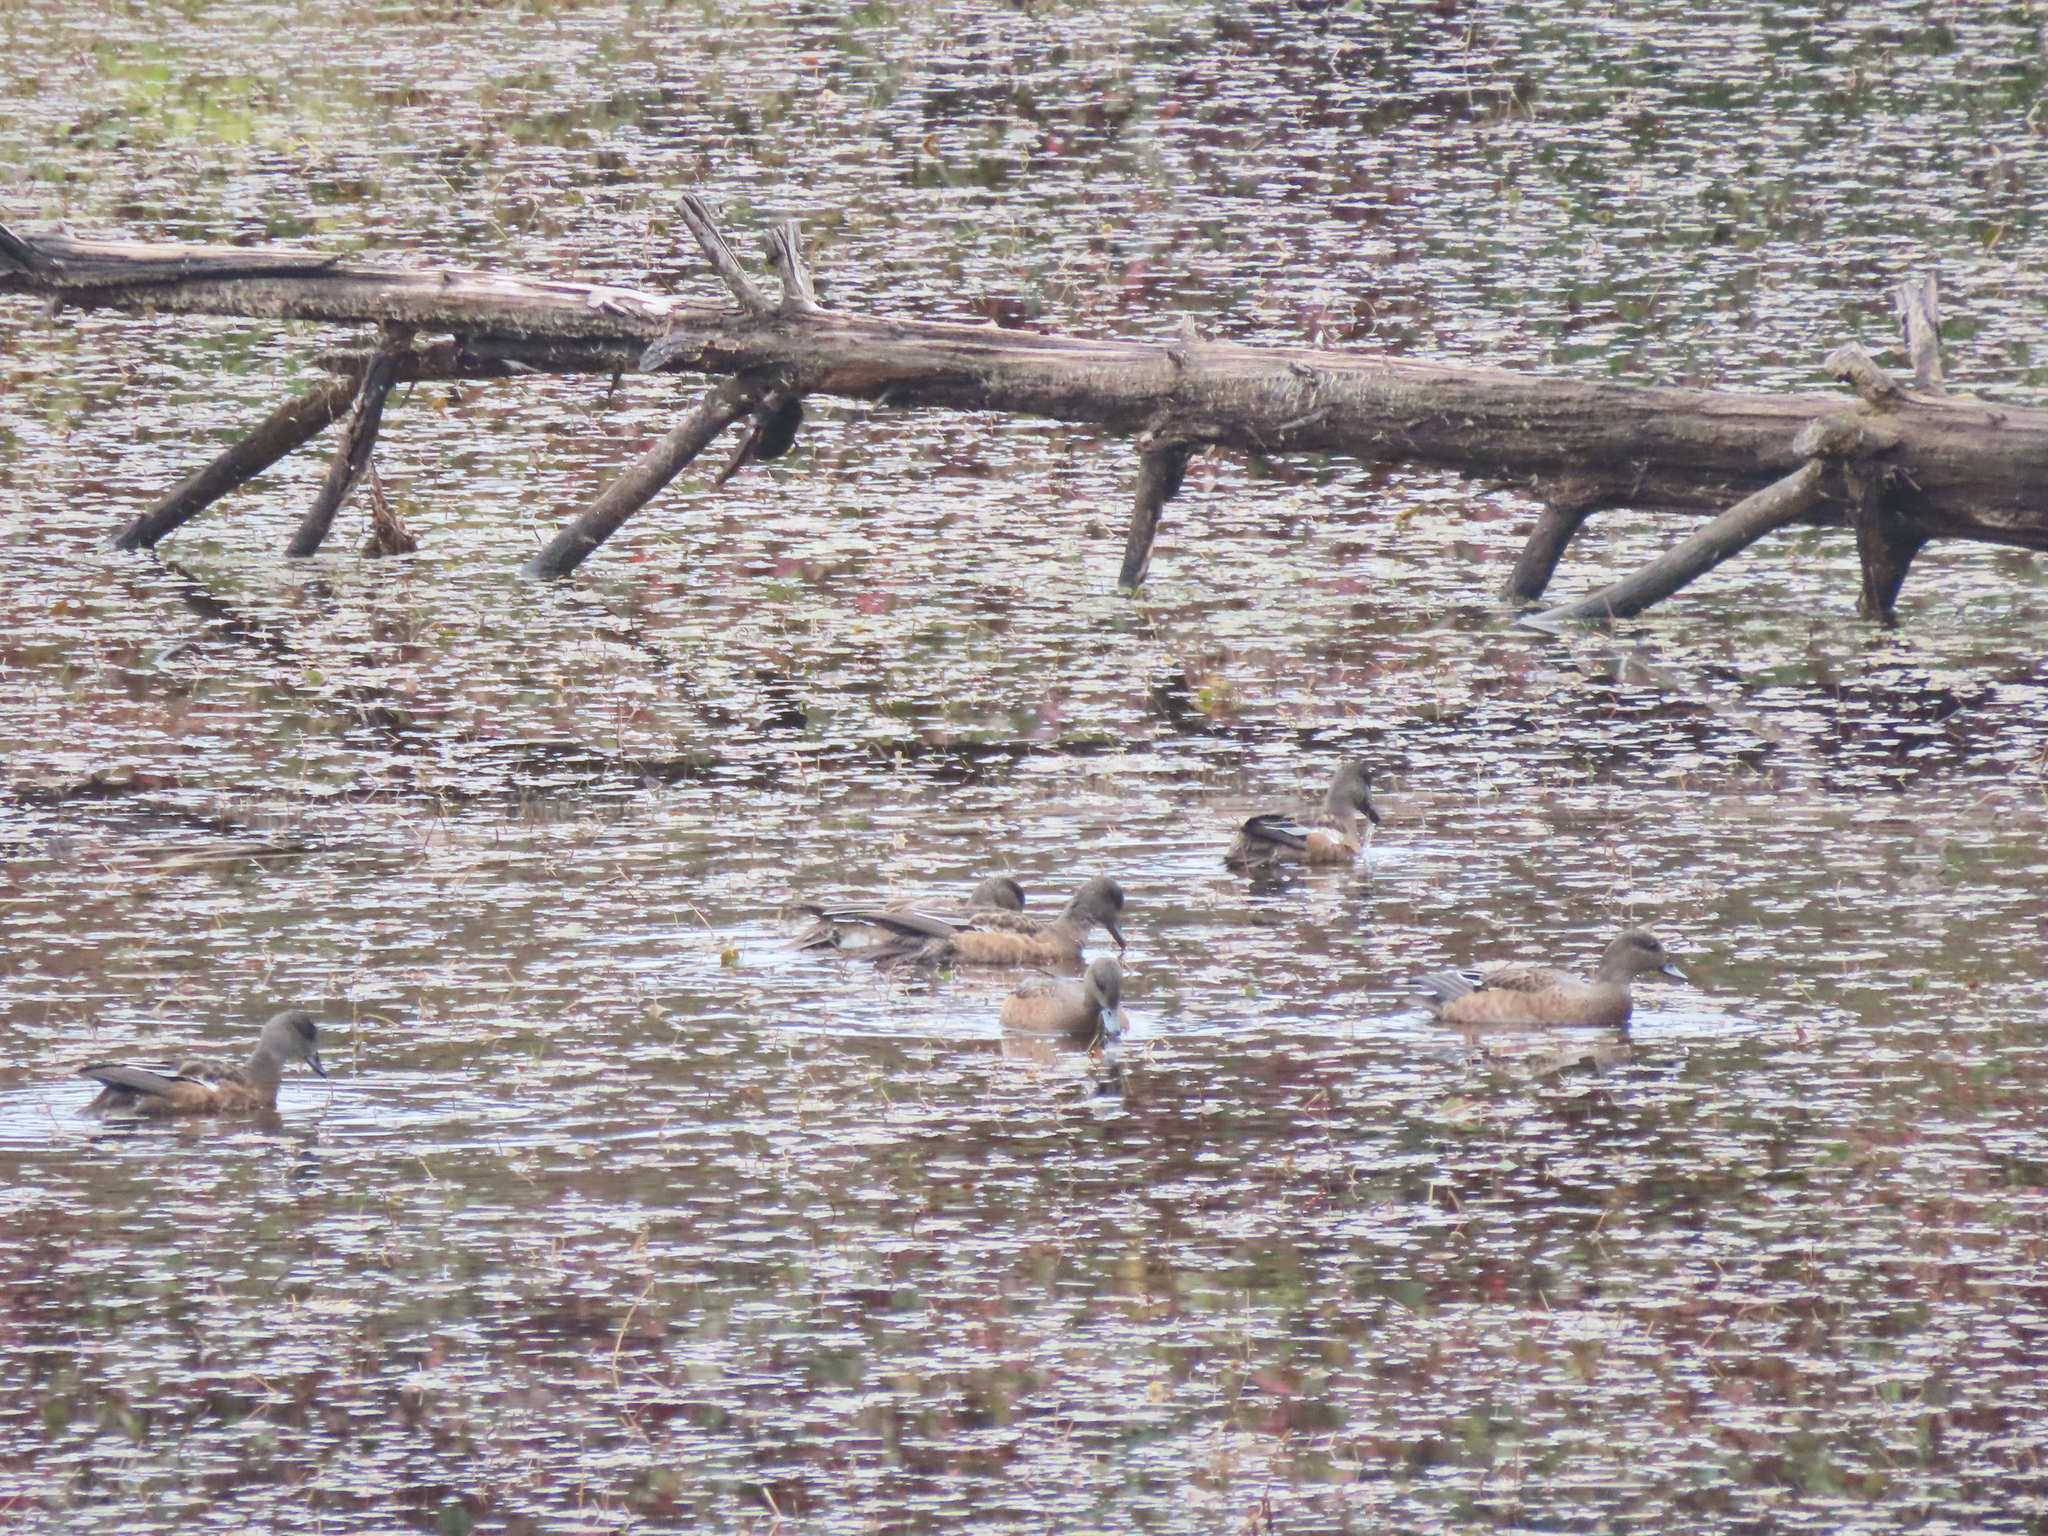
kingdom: Animalia
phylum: Chordata
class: Aves
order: Anseriformes
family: Anatidae
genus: Mareca
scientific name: Mareca americana
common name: American wigeon
